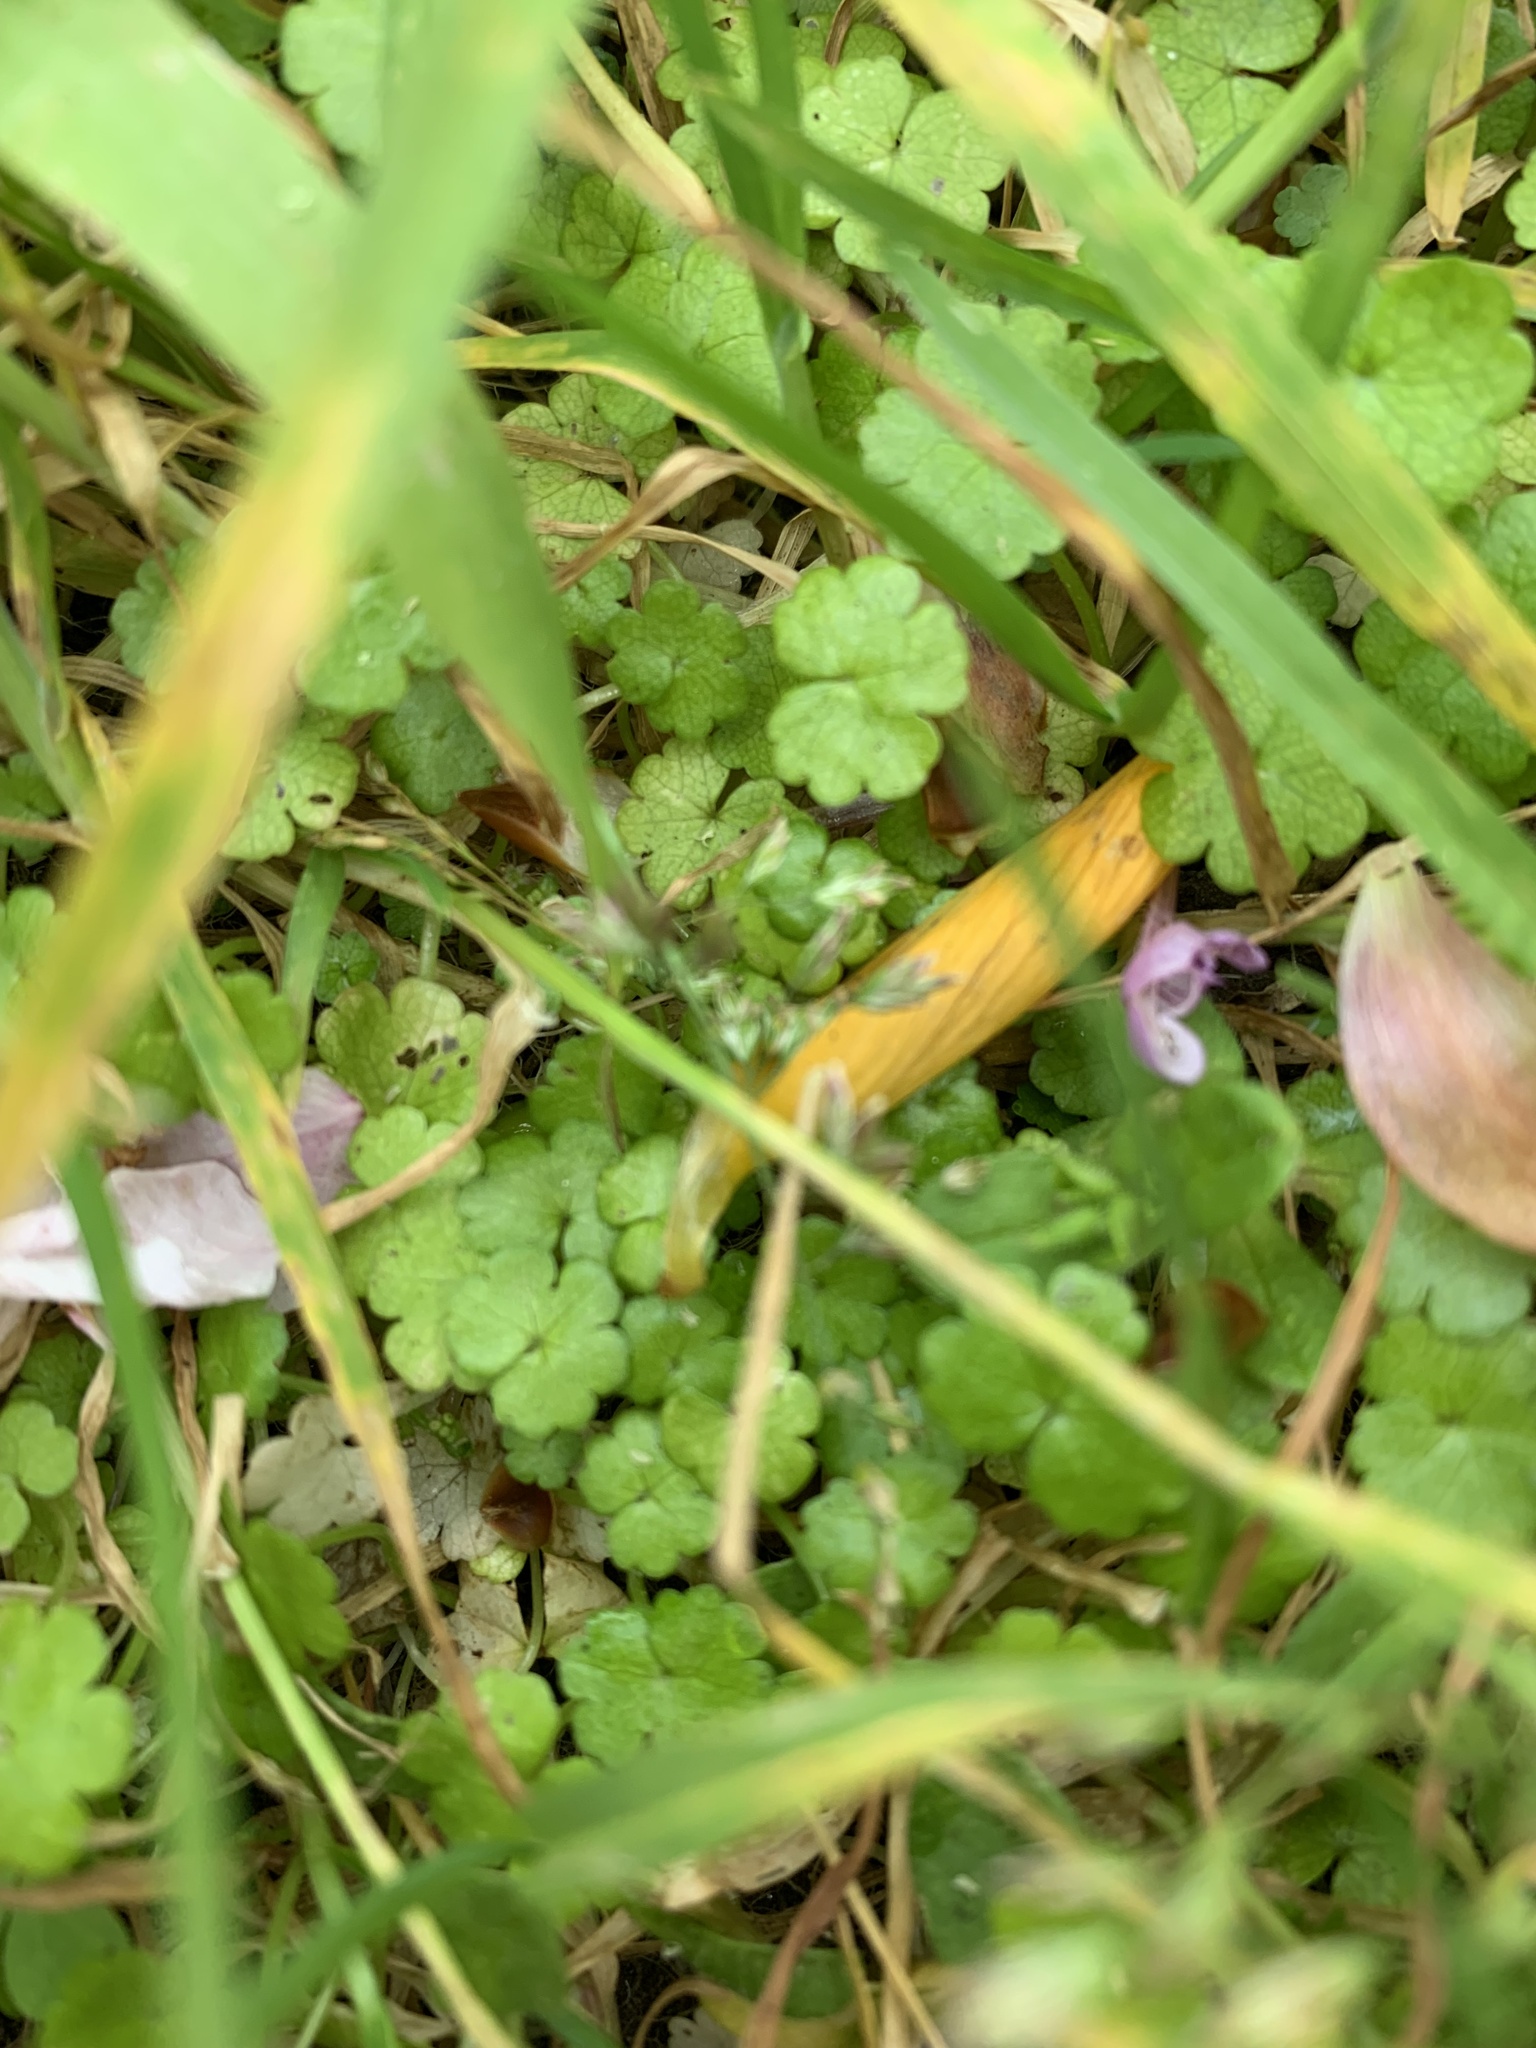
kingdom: Plantae
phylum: Tracheophyta
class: Magnoliopsida
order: Apiales
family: Araliaceae
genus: Hydrocotyle
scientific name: Hydrocotyle heteromeria
